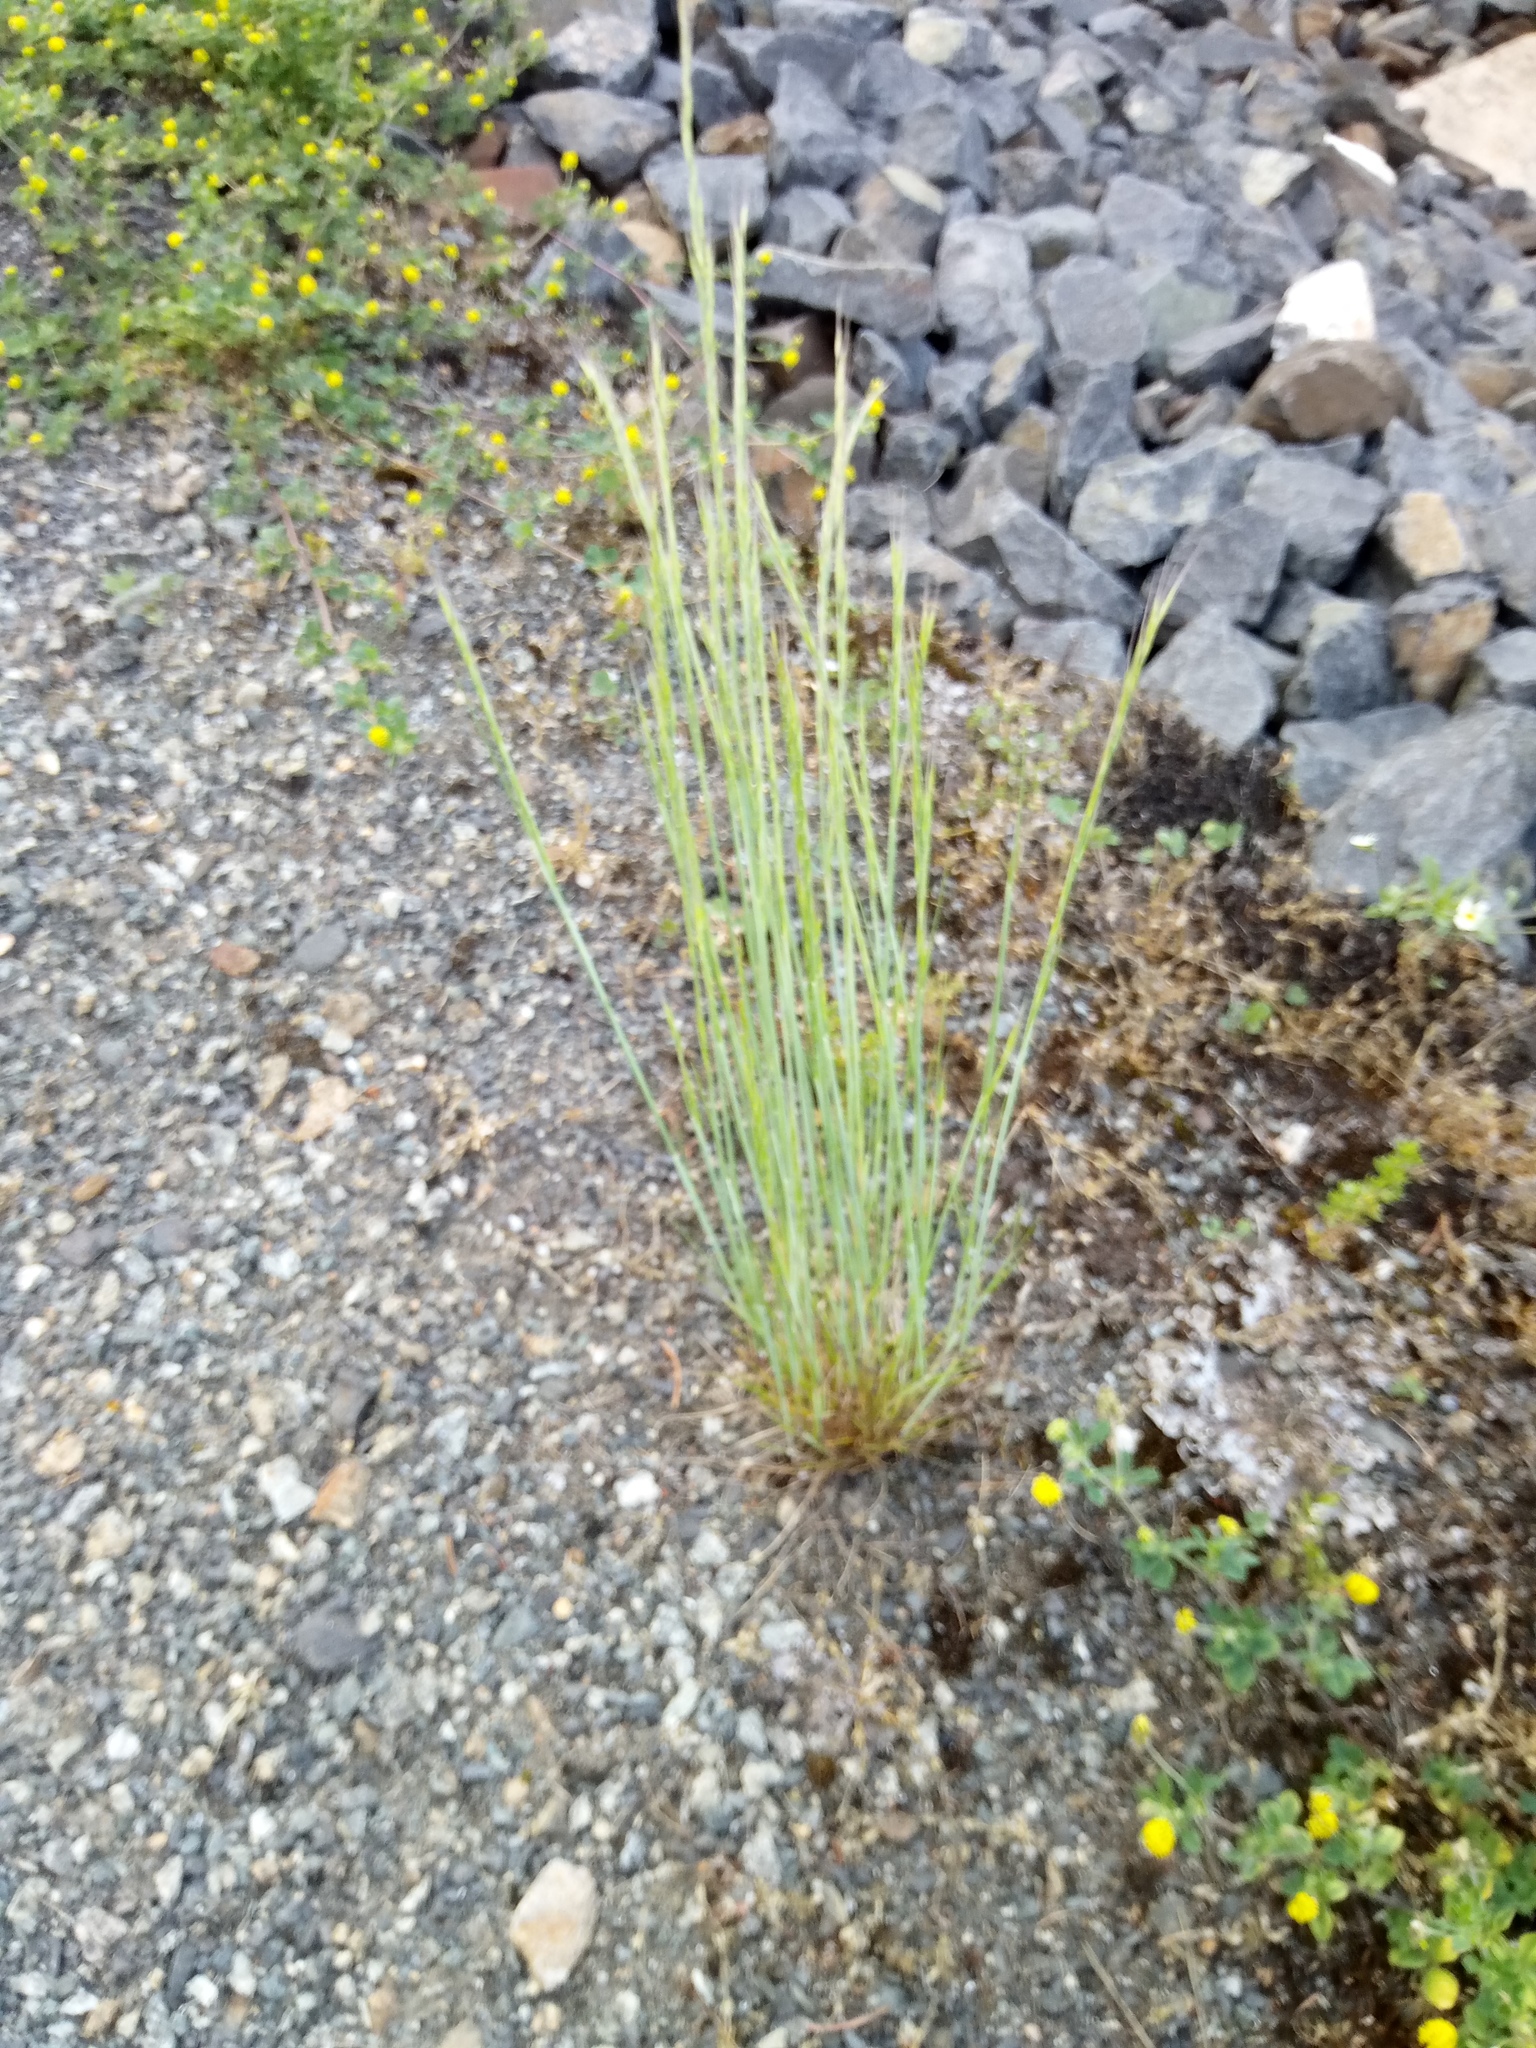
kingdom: Plantae
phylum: Tracheophyta
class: Liliopsida
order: Poales
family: Poaceae
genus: Festuca
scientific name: Festuca myuros
